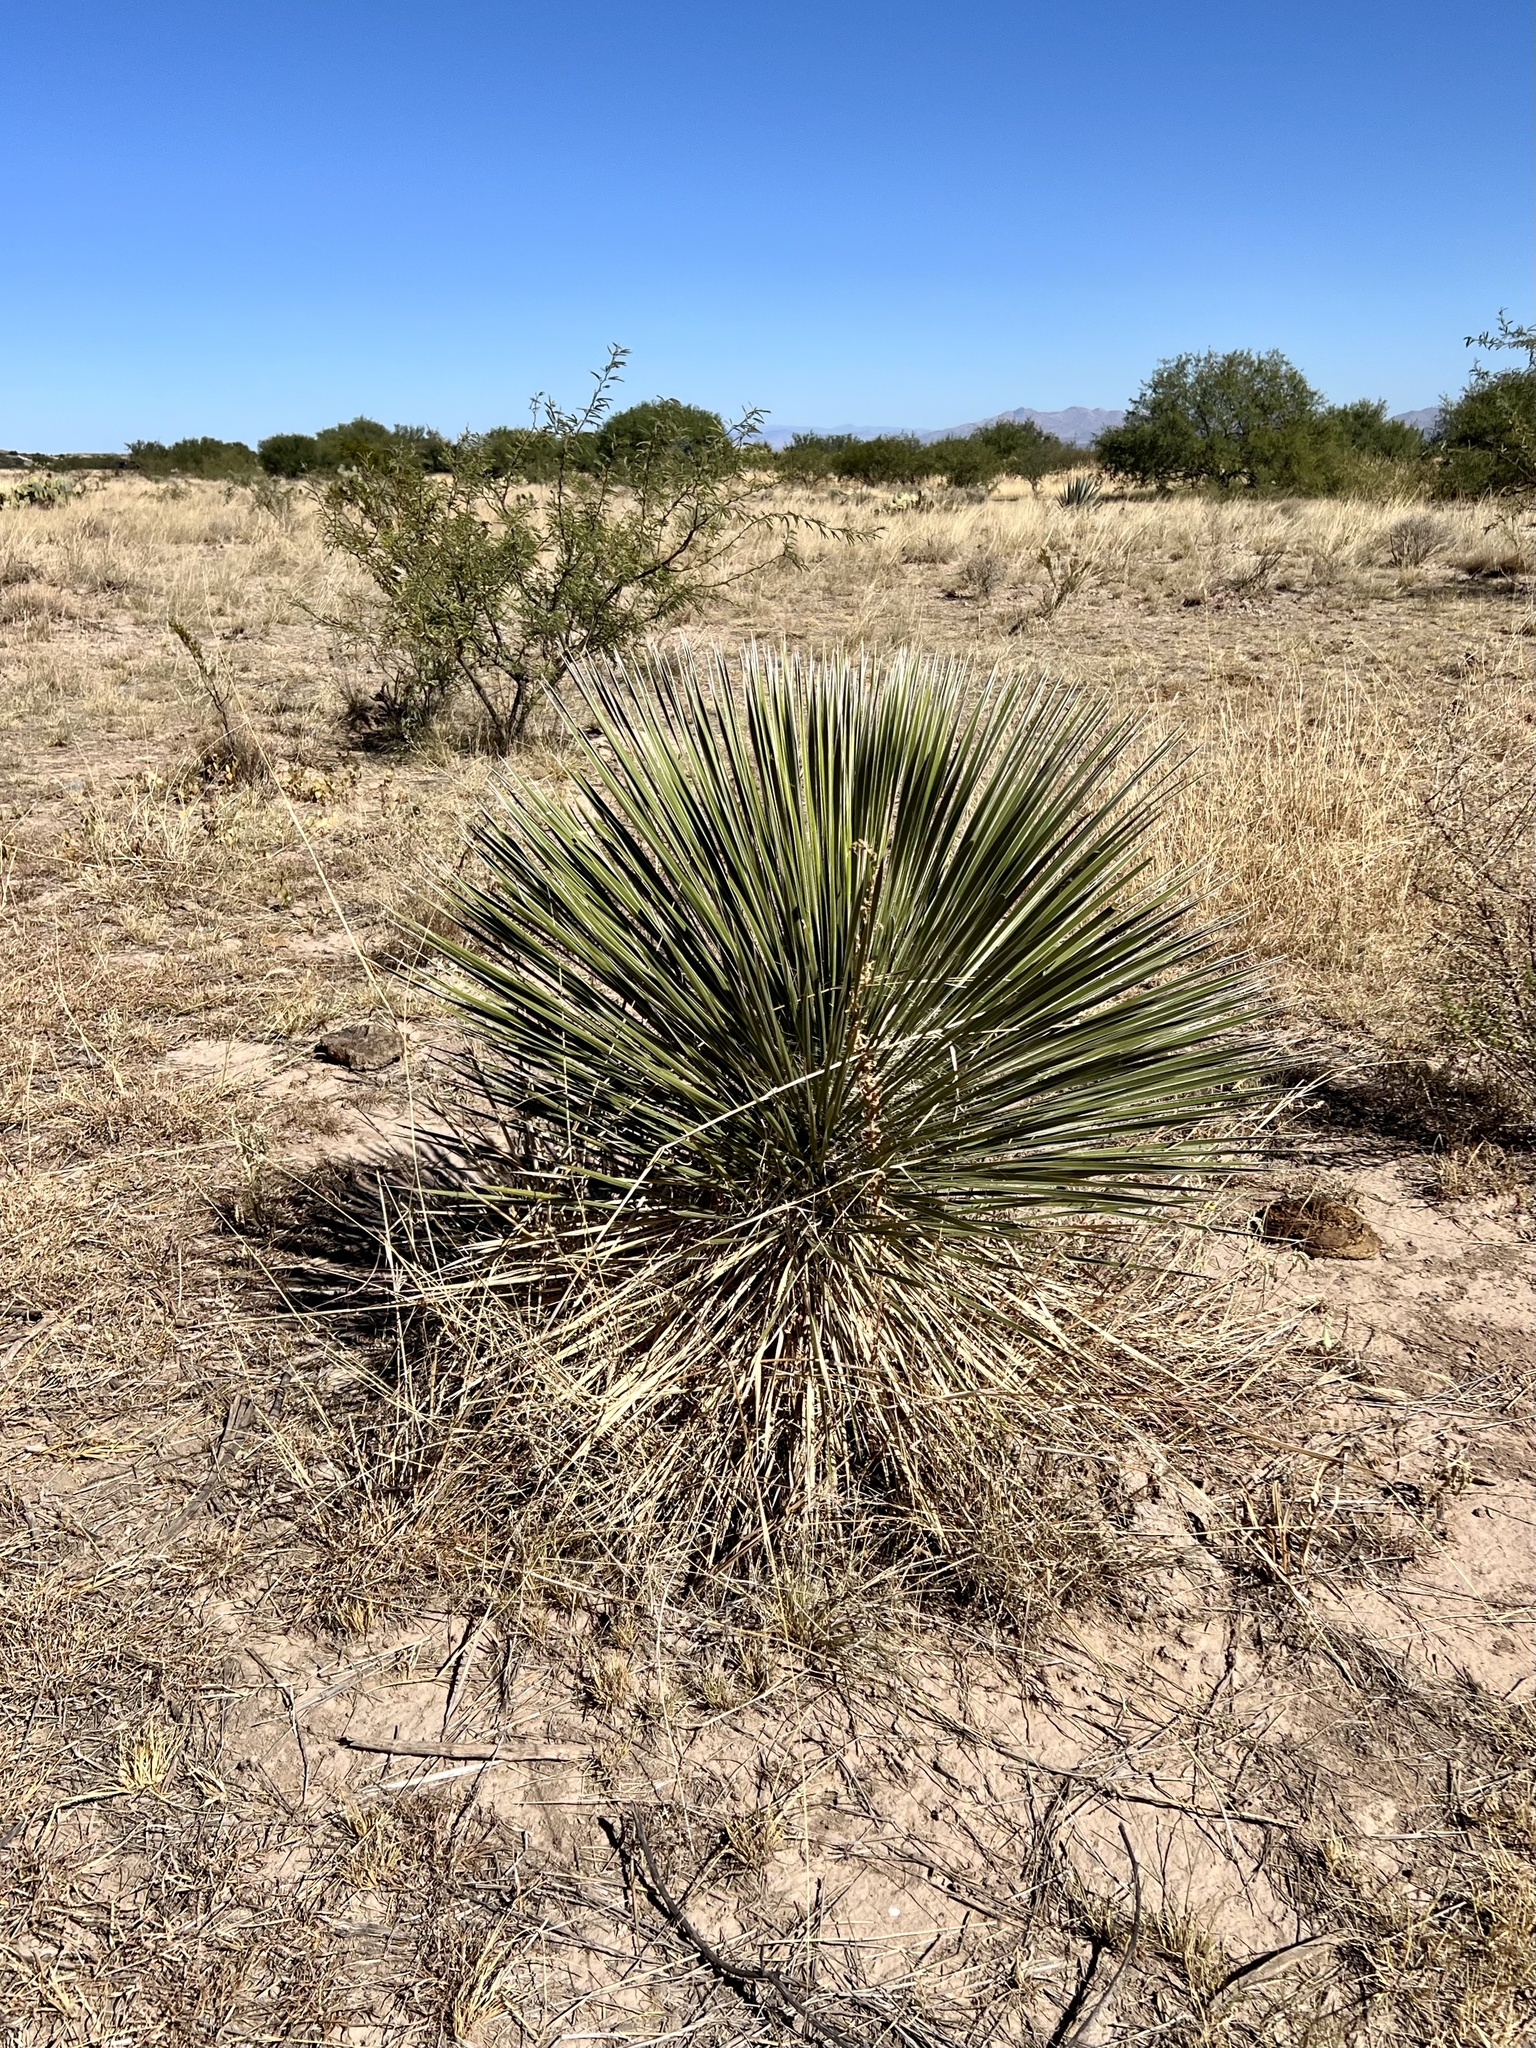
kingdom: Plantae
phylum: Tracheophyta
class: Liliopsida
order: Asparagales
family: Asparagaceae
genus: Yucca
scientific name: Yucca elata
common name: Palmella
